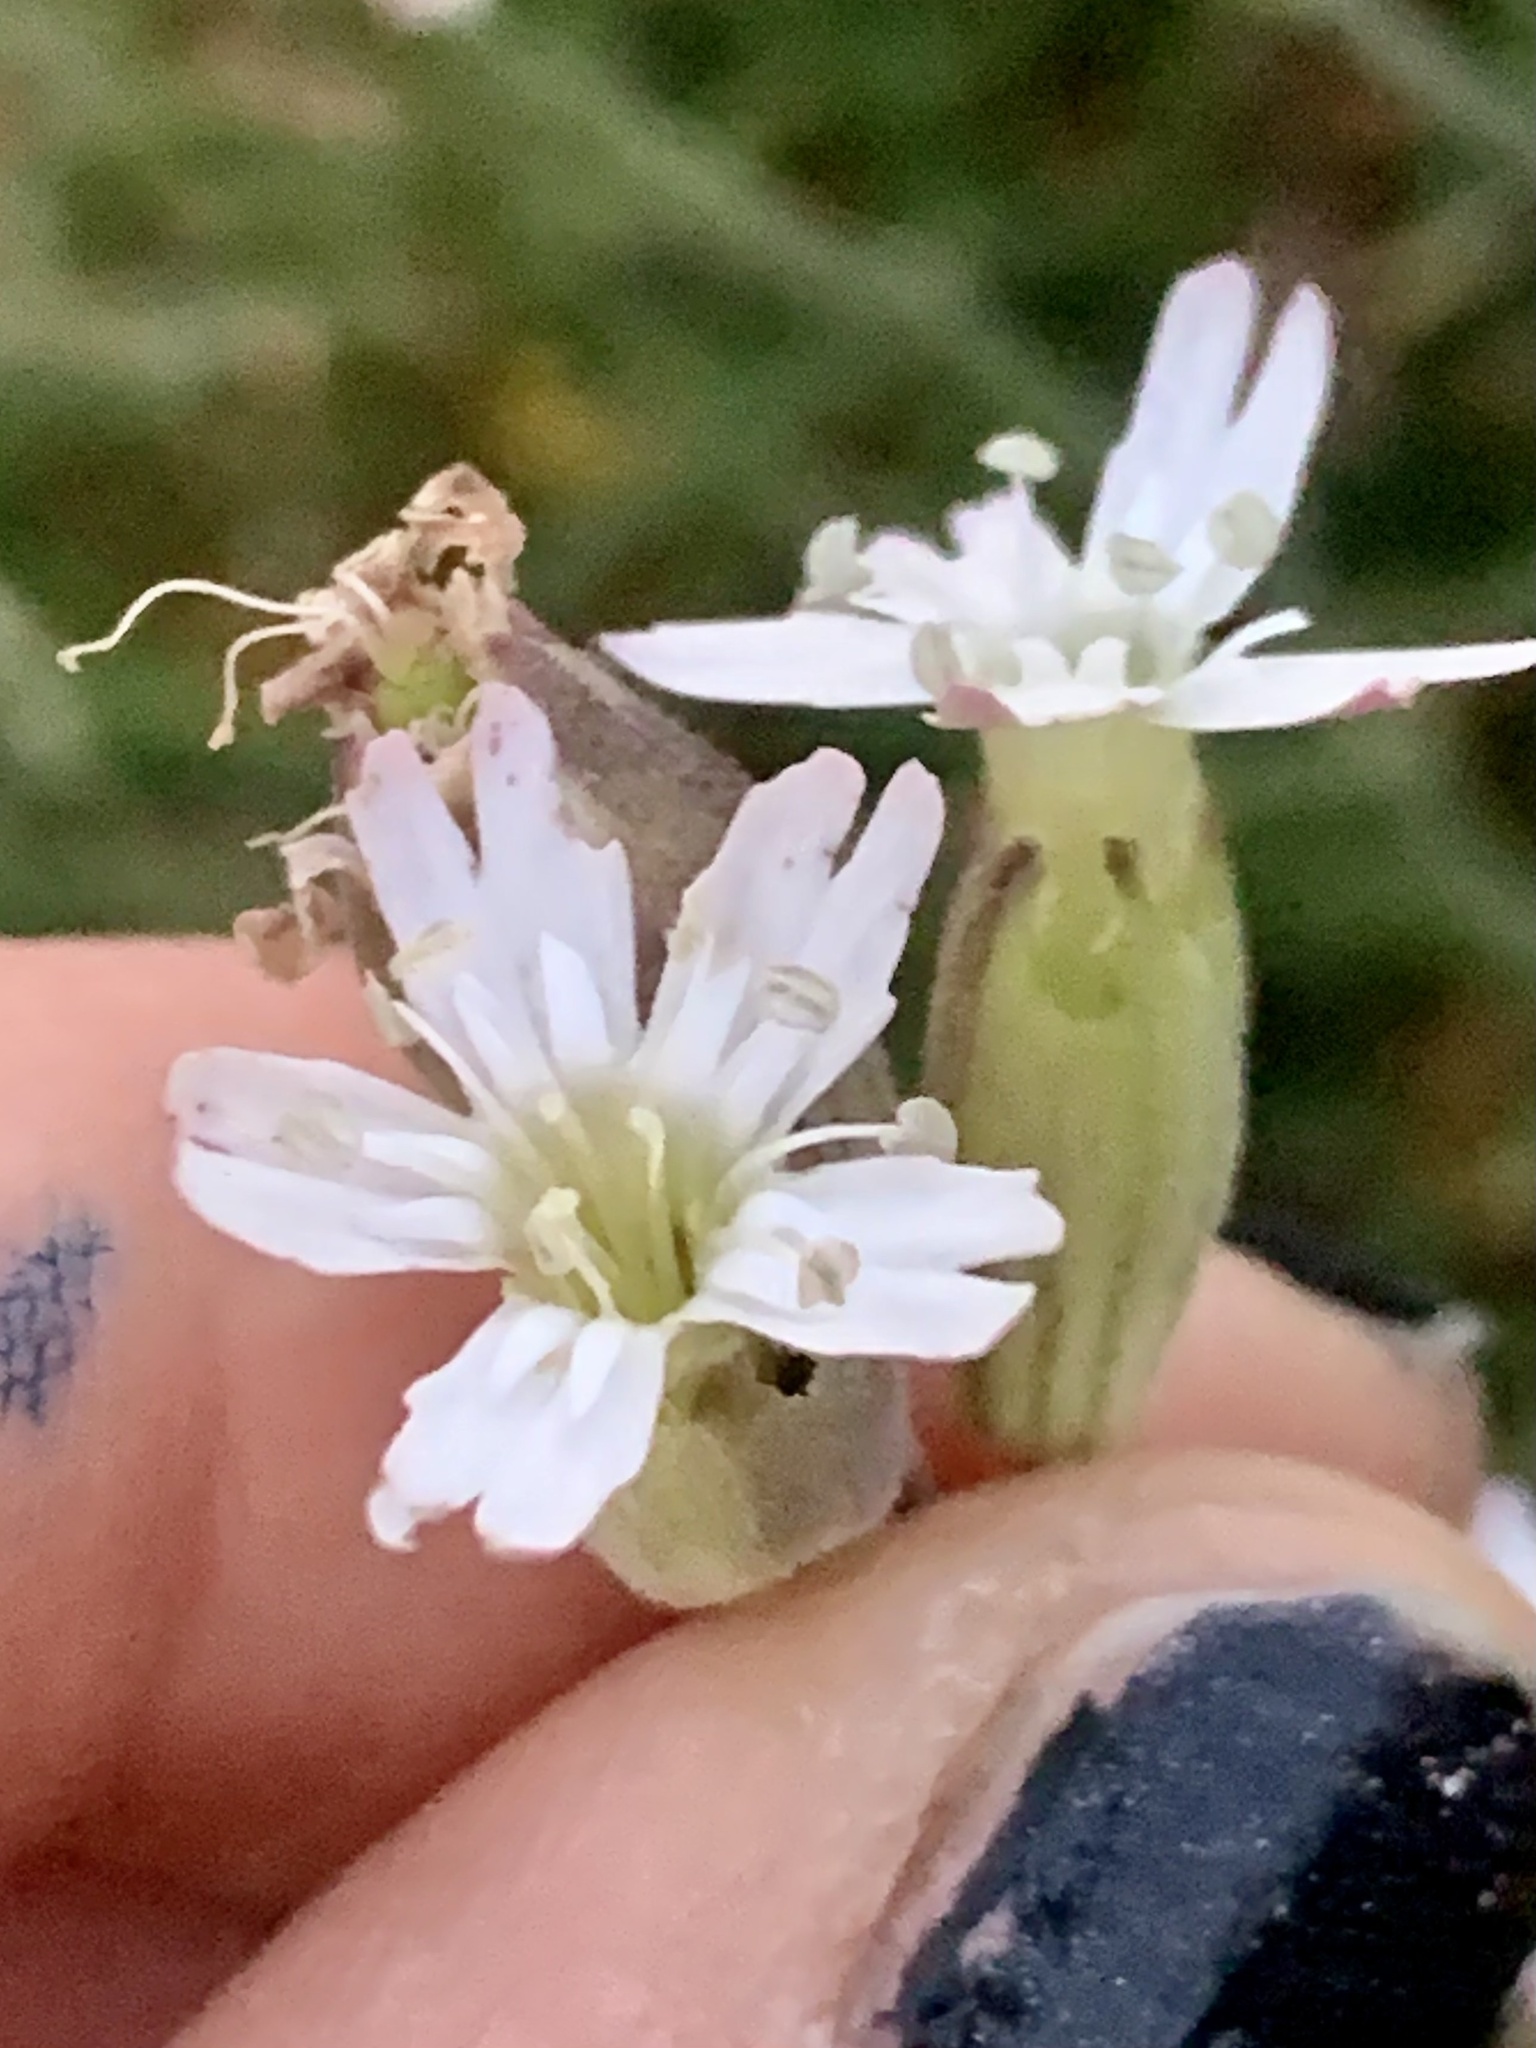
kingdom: Plantae
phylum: Tracheophyta
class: Magnoliopsida
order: Caryophyllales
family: Caryophyllaceae
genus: Silene
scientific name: Silene douglasii
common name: Douglas's catchfly
